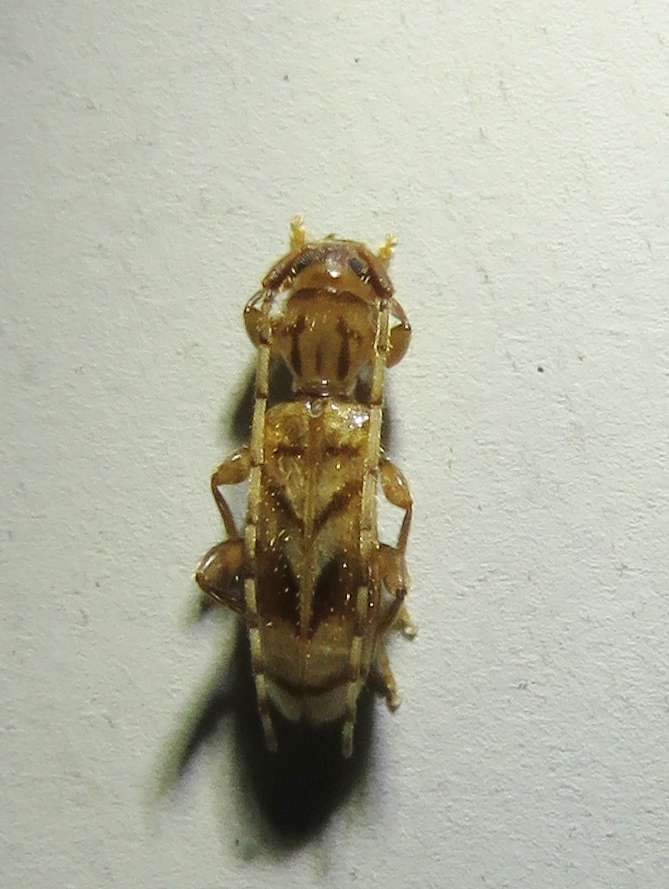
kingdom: Animalia
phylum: Arthropoda
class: Insecta
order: Coleoptera
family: Cerambycidae
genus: Obrium
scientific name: Obrium maculatum
